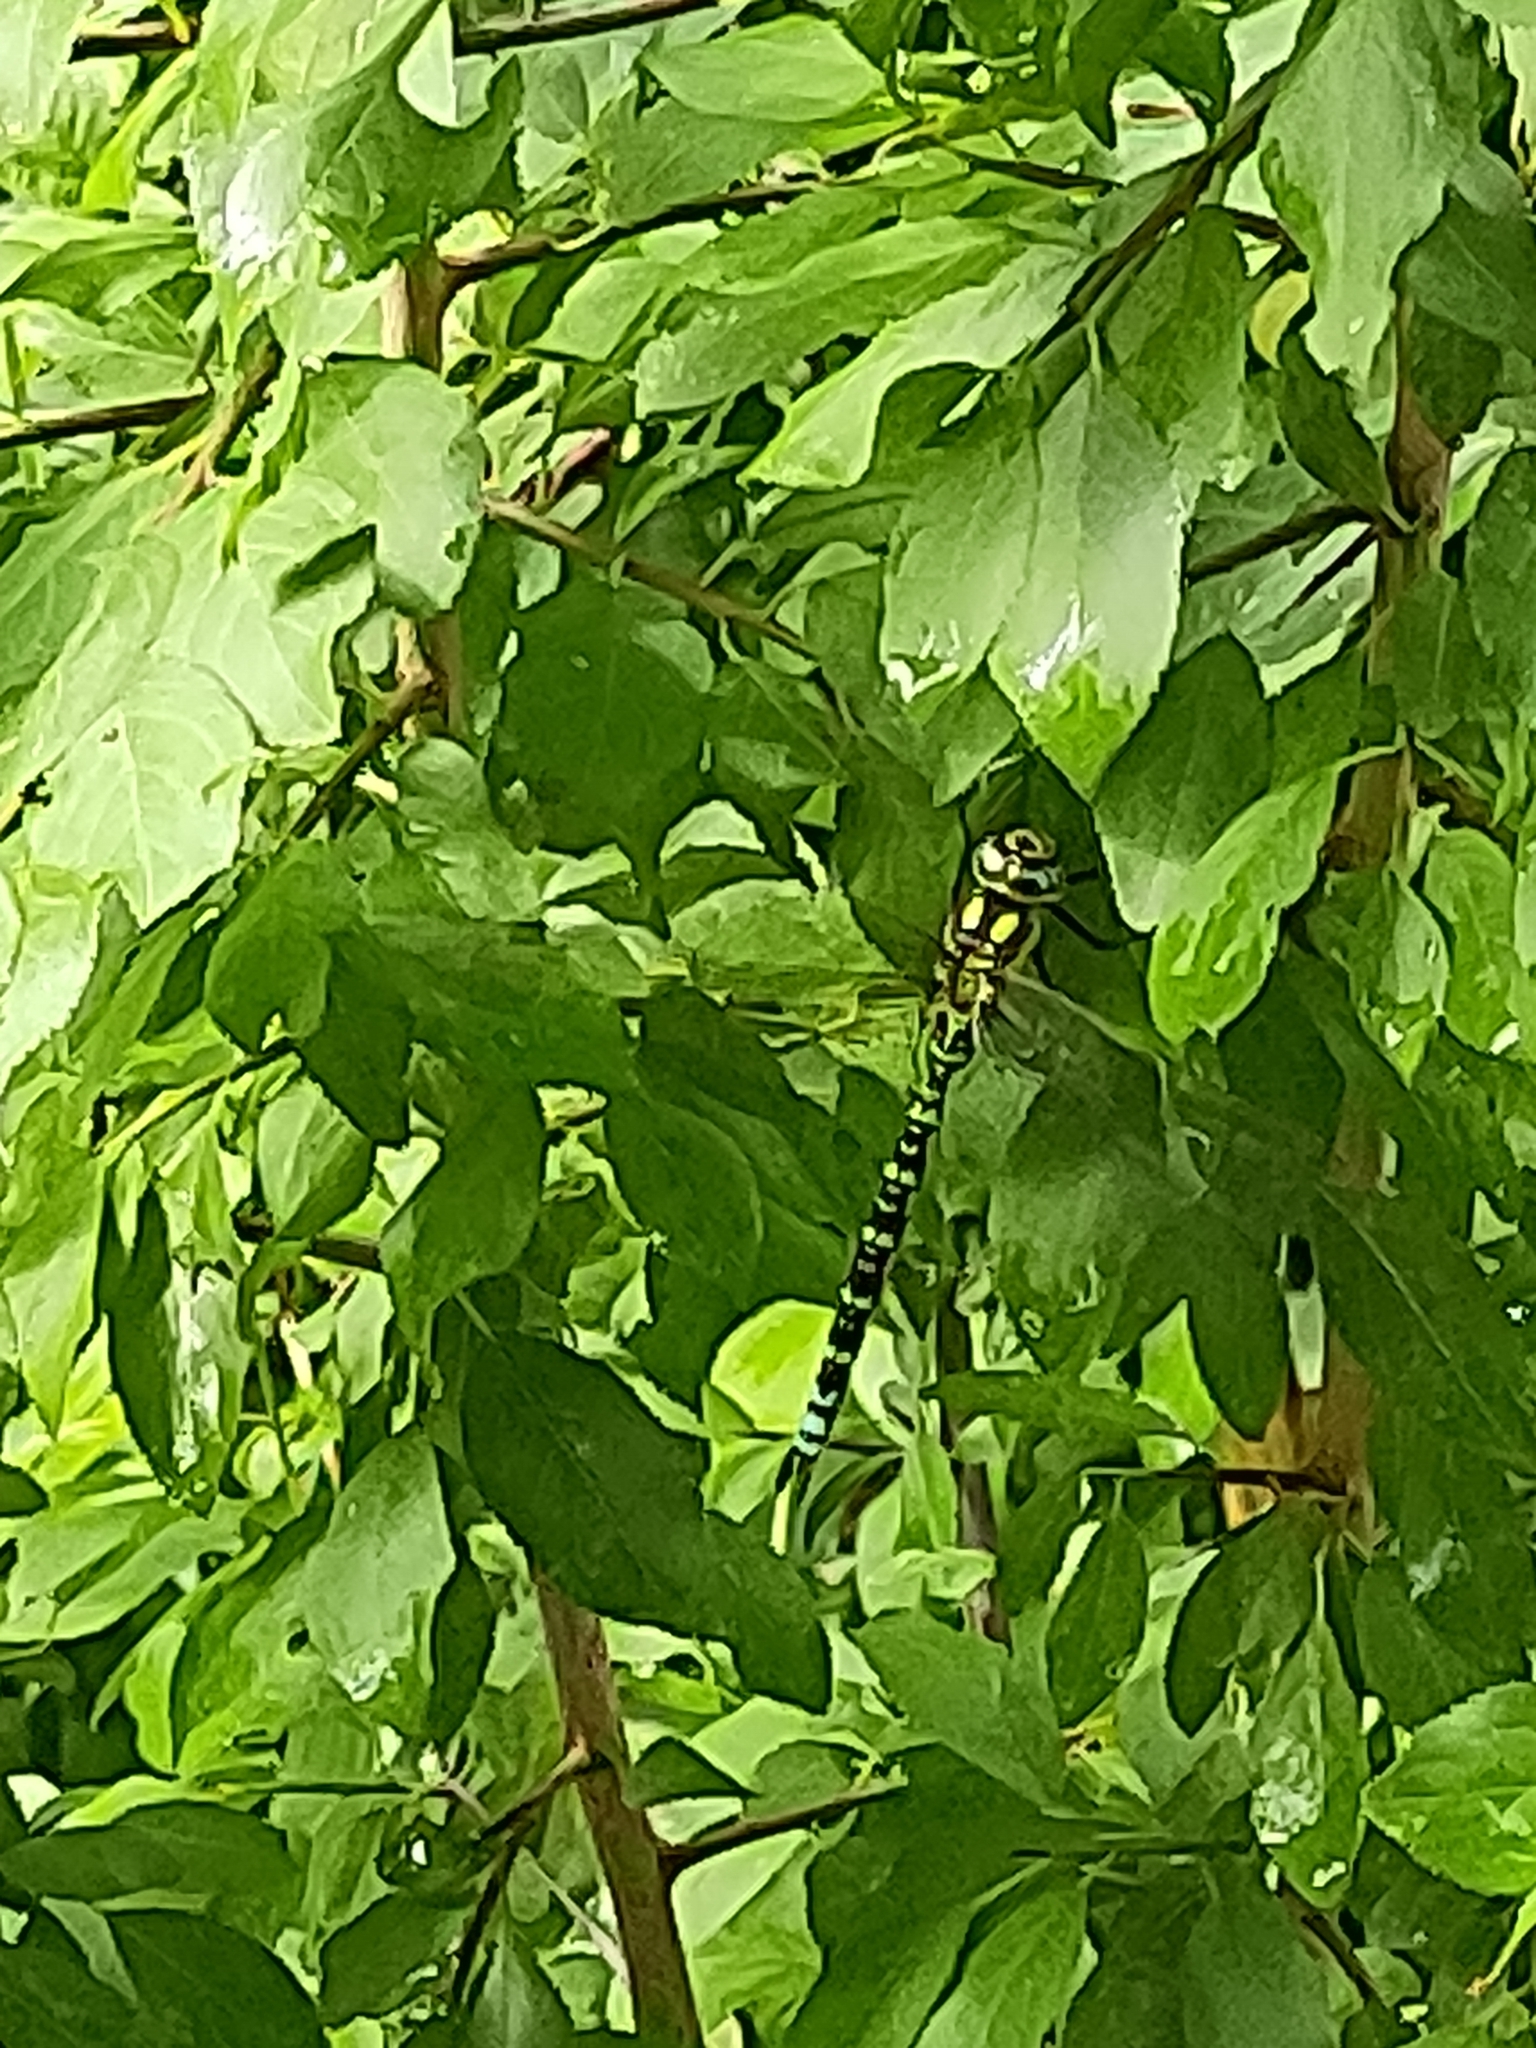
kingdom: Animalia
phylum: Arthropoda
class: Insecta
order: Odonata
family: Aeshnidae
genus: Aeshna
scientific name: Aeshna cyanea
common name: Southern hawker
